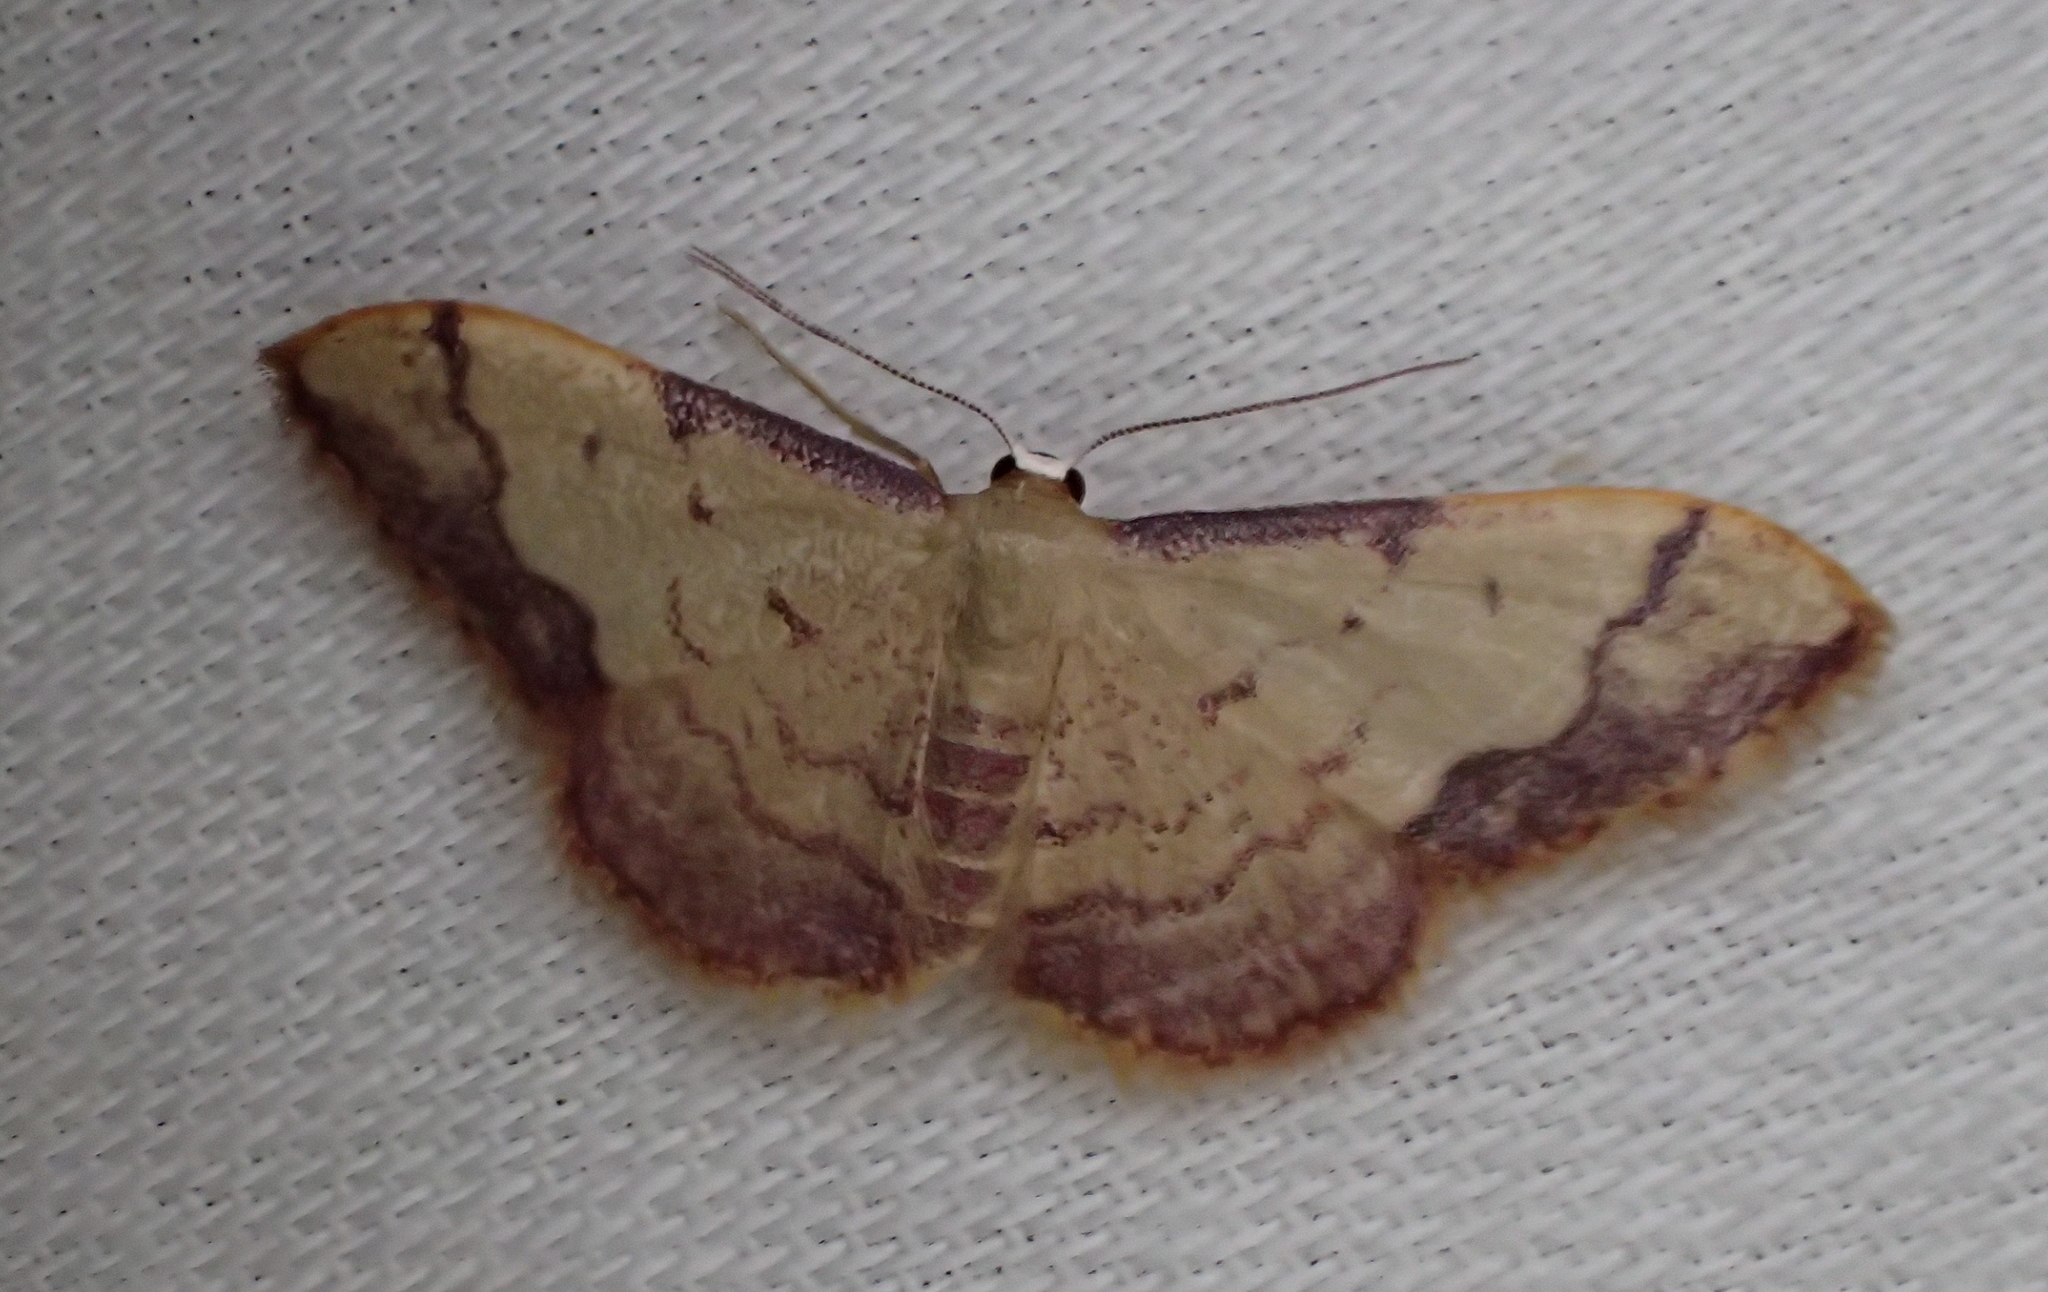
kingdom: Animalia
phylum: Arthropoda
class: Insecta
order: Lepidoptera
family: Geometridae
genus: Idaea
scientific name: Idaea ostrinaria
